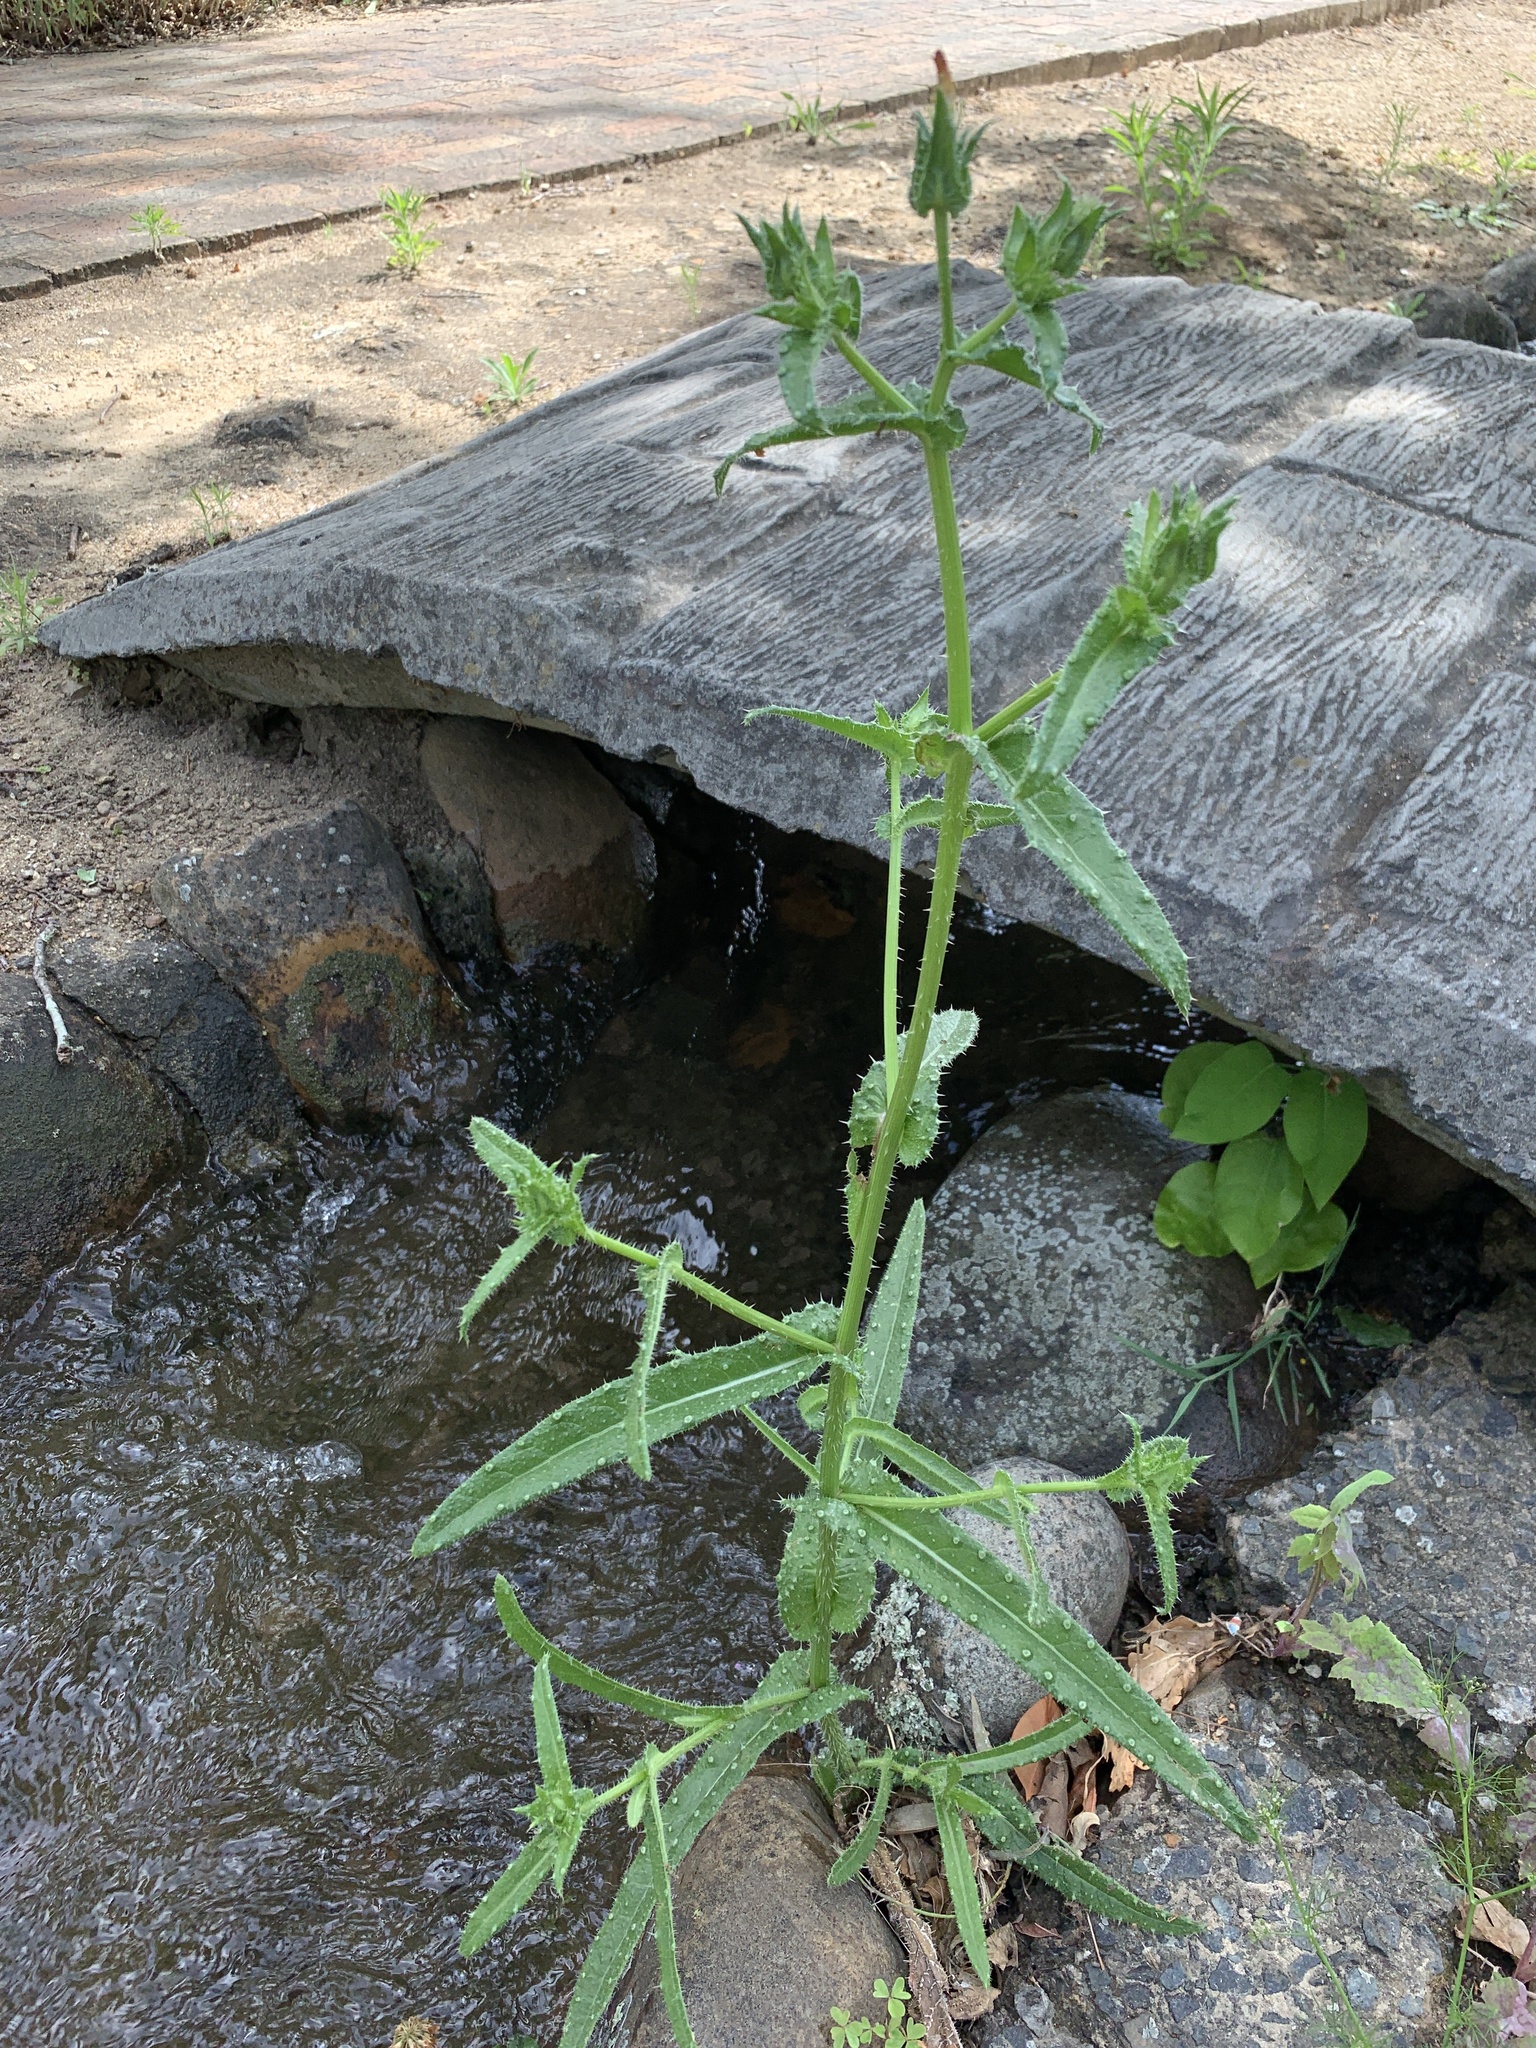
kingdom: Plantae
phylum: Tracheophyta
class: Magnoliopsida
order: Asterales
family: Asteraceae
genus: Helminthotheca
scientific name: Helminthotheca echioides
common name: Ox-tongue
